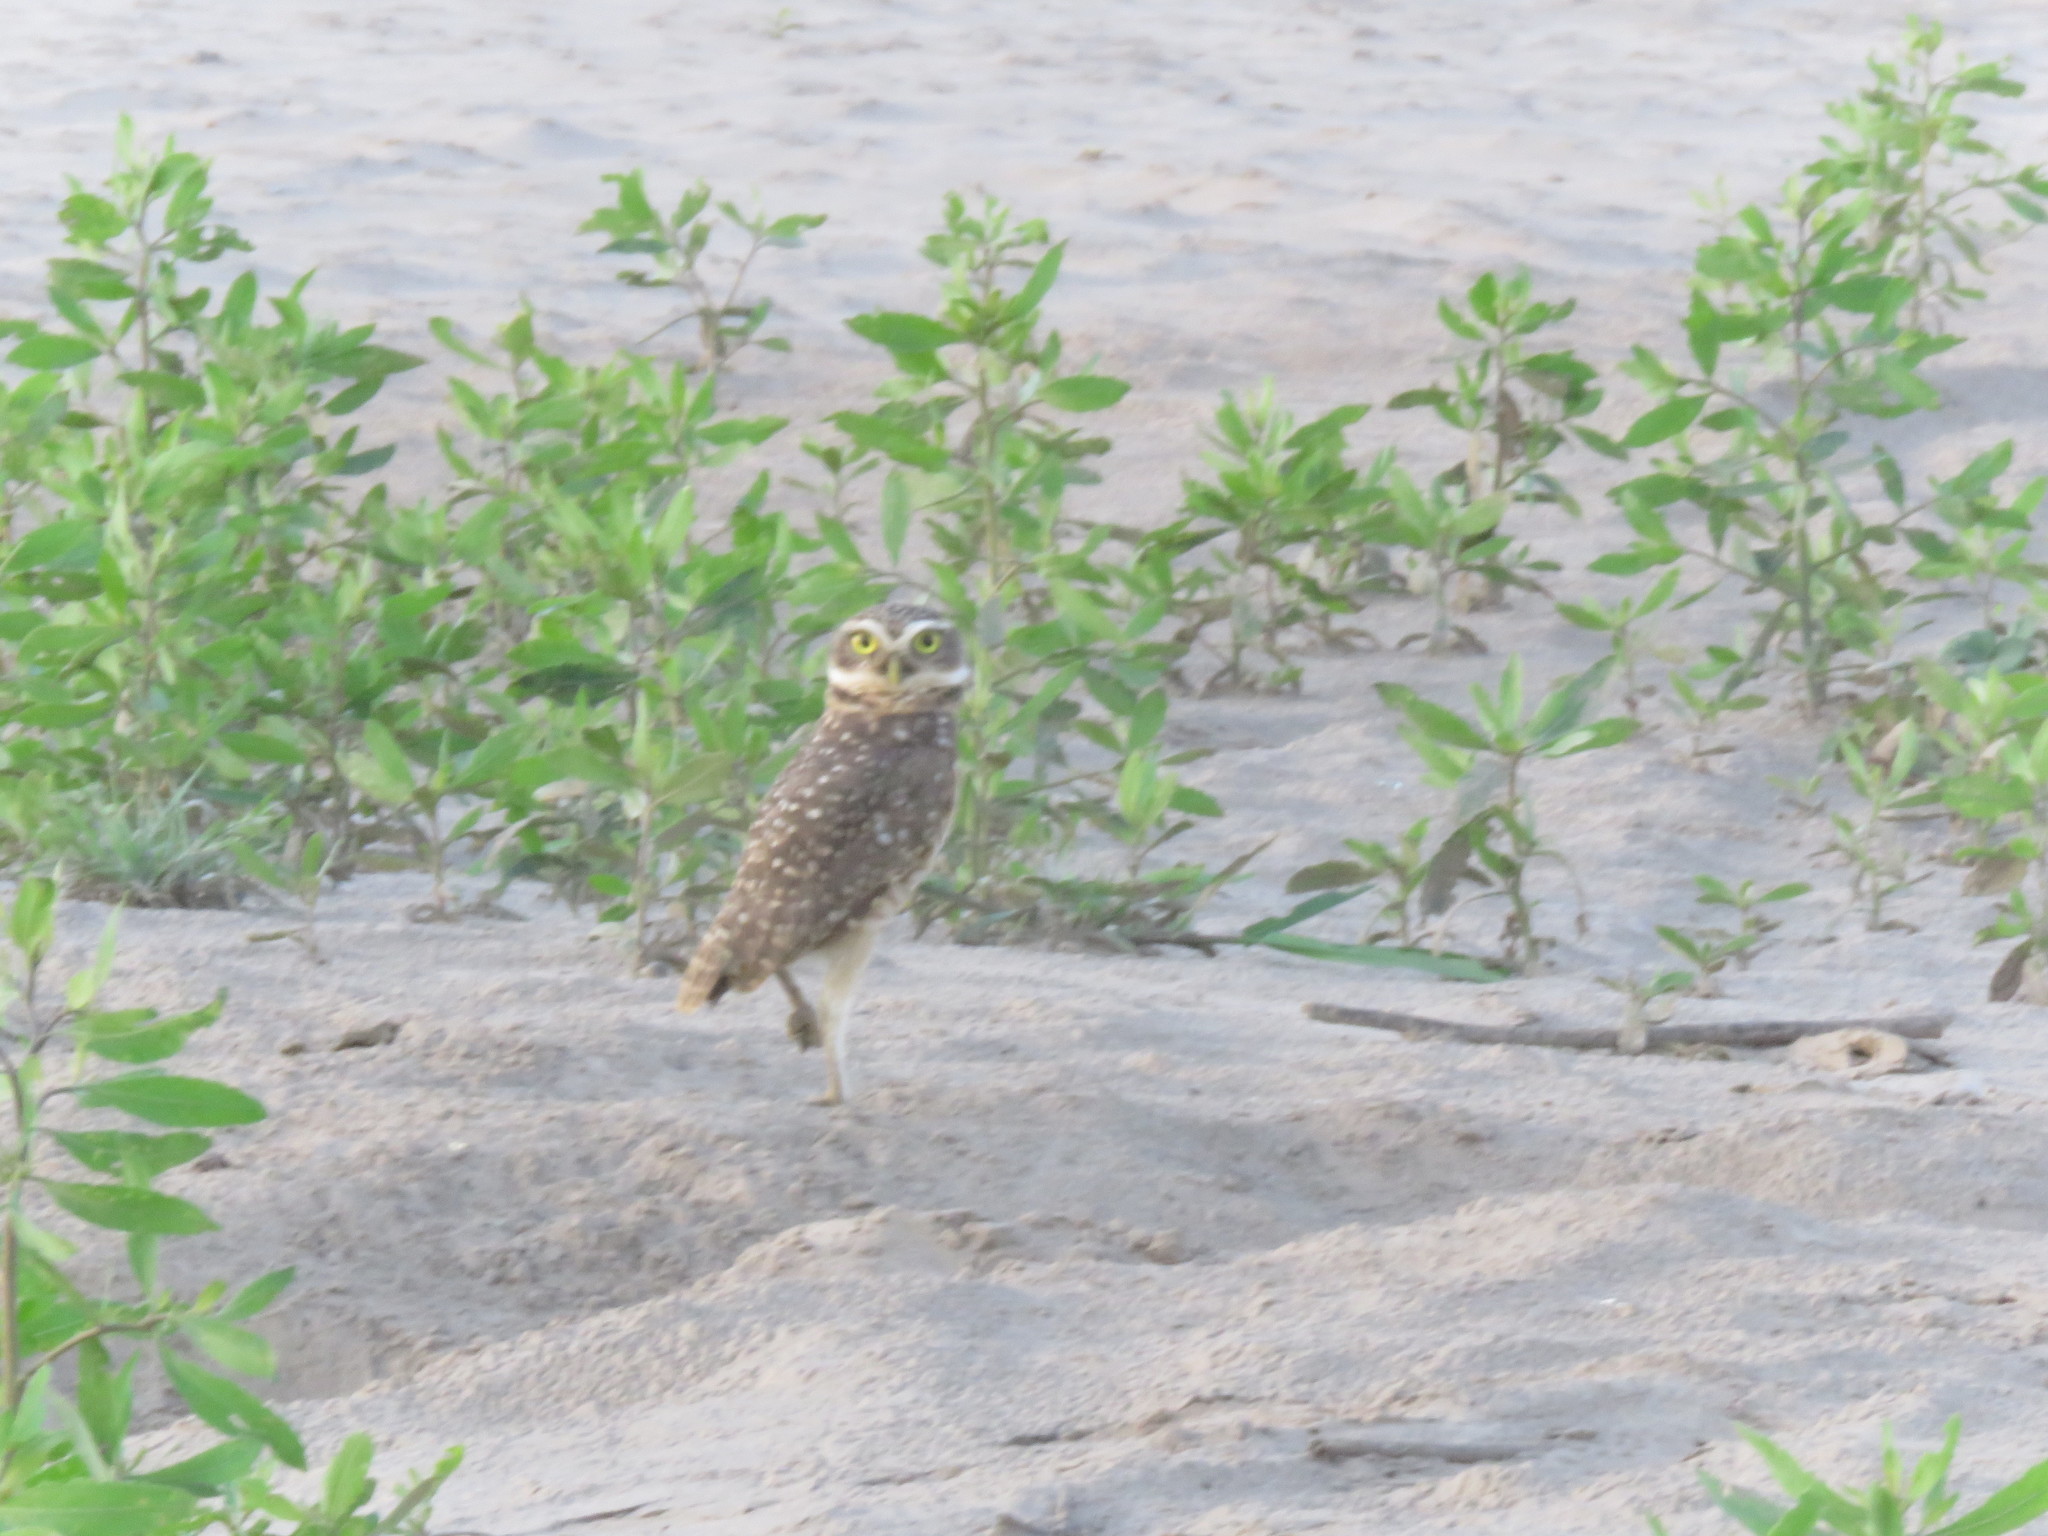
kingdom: Animalia
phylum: Chordata
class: Aves
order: Strigiformes
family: Strigidae
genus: Athene
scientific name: Athene cunicularia
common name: Burrowing owl
